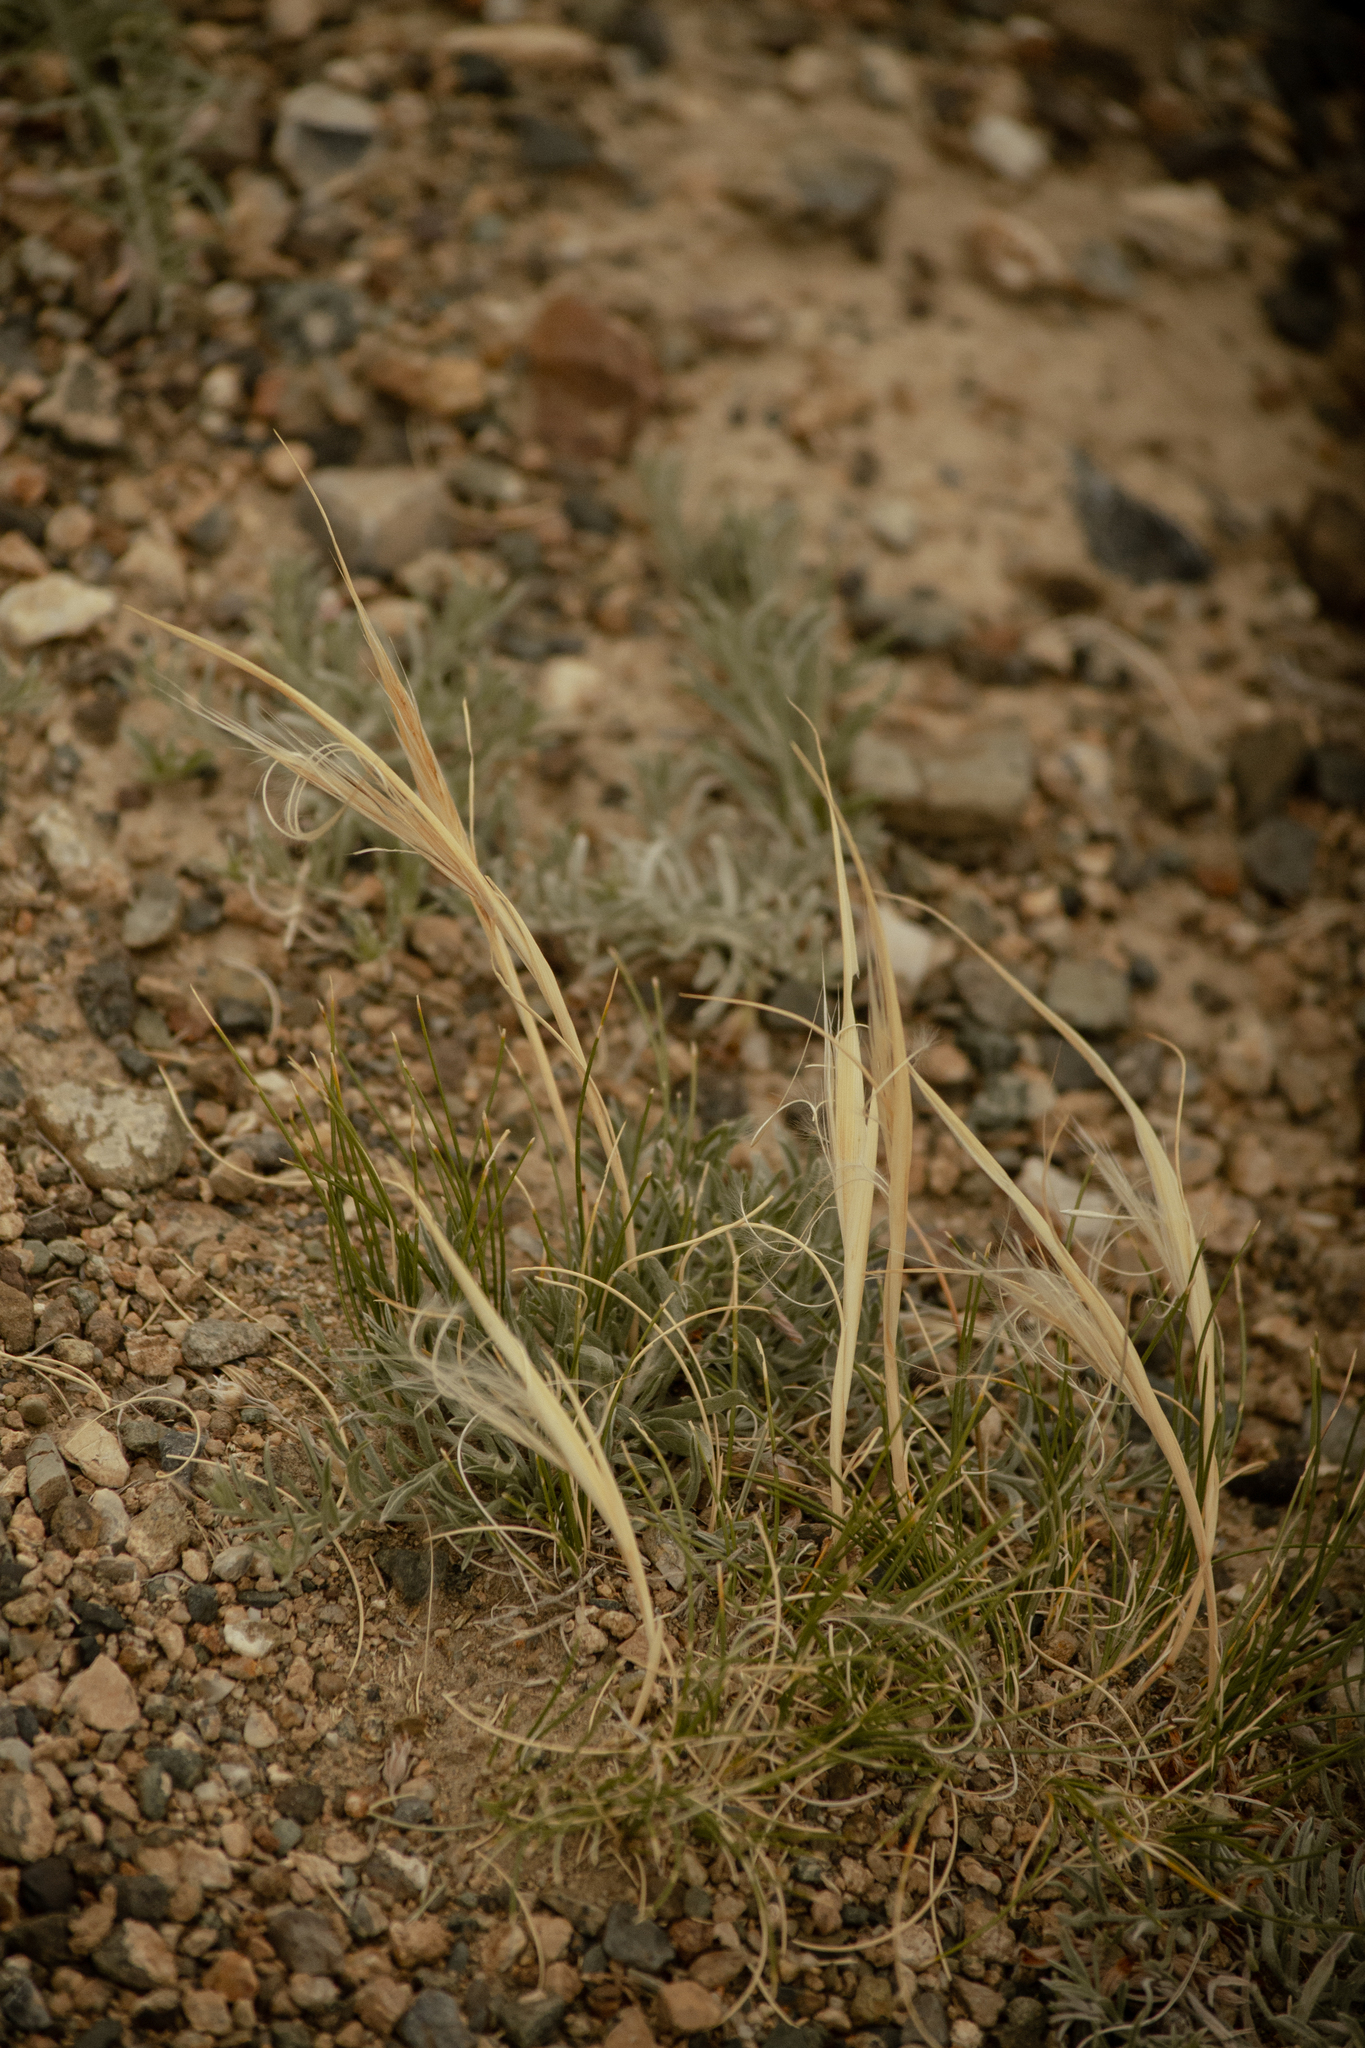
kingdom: Plantae
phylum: Tracheophyta
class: Liliopsida
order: Poales
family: Poaceae
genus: Stipa
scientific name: Stipa glareosa
